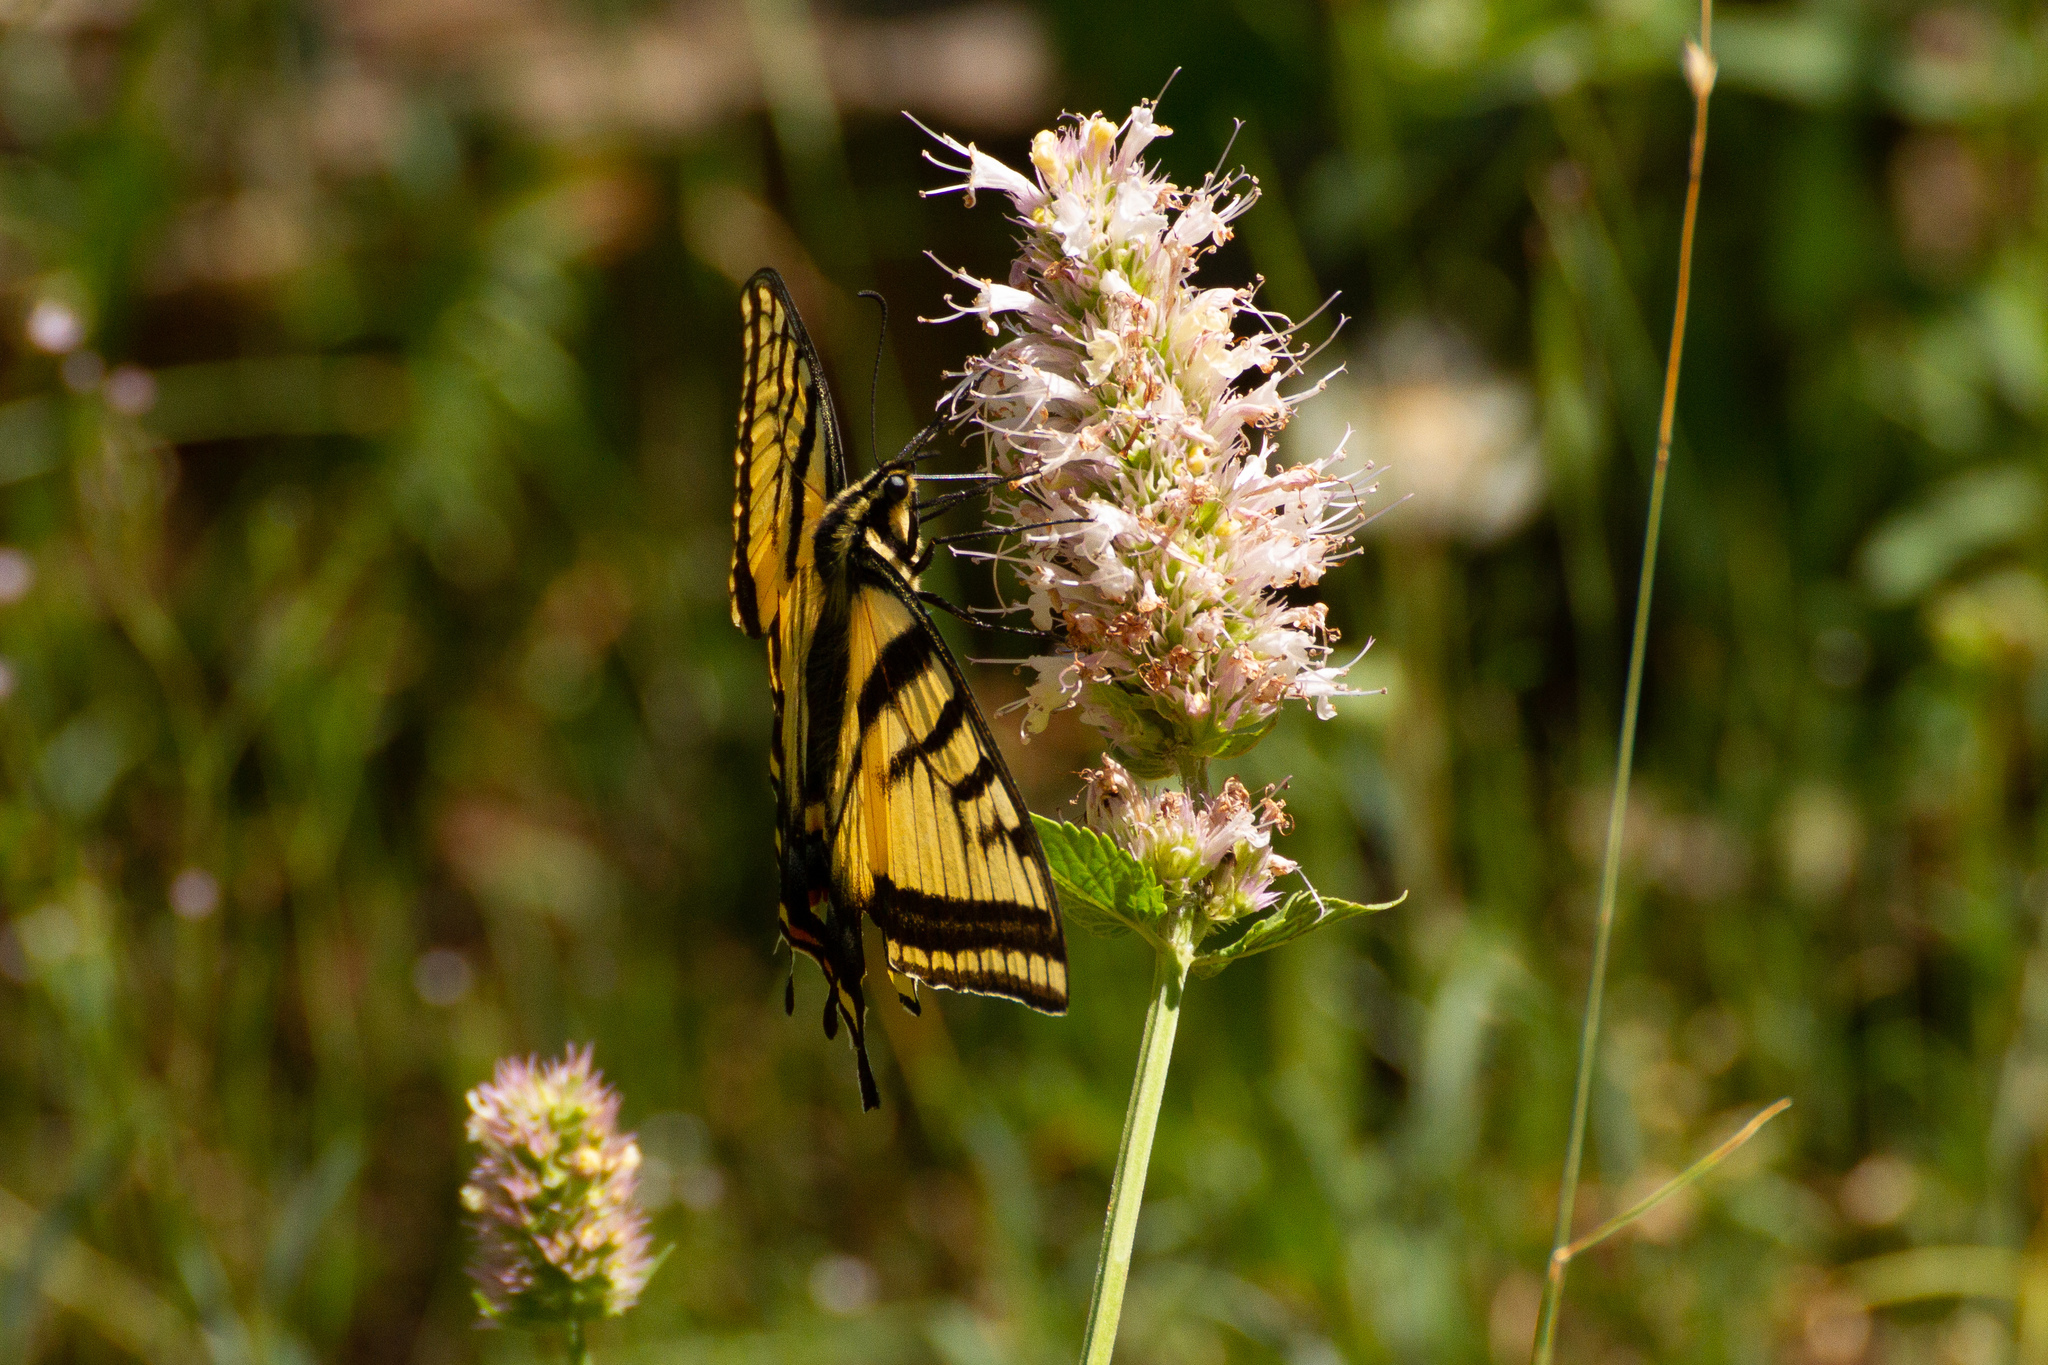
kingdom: Animalia
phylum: Arthropoda
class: Insecta
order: Lepidoptera
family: Papilionidae
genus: Papilio
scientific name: Papilio multicaudata
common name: Two-tailed tiger swallowtail
